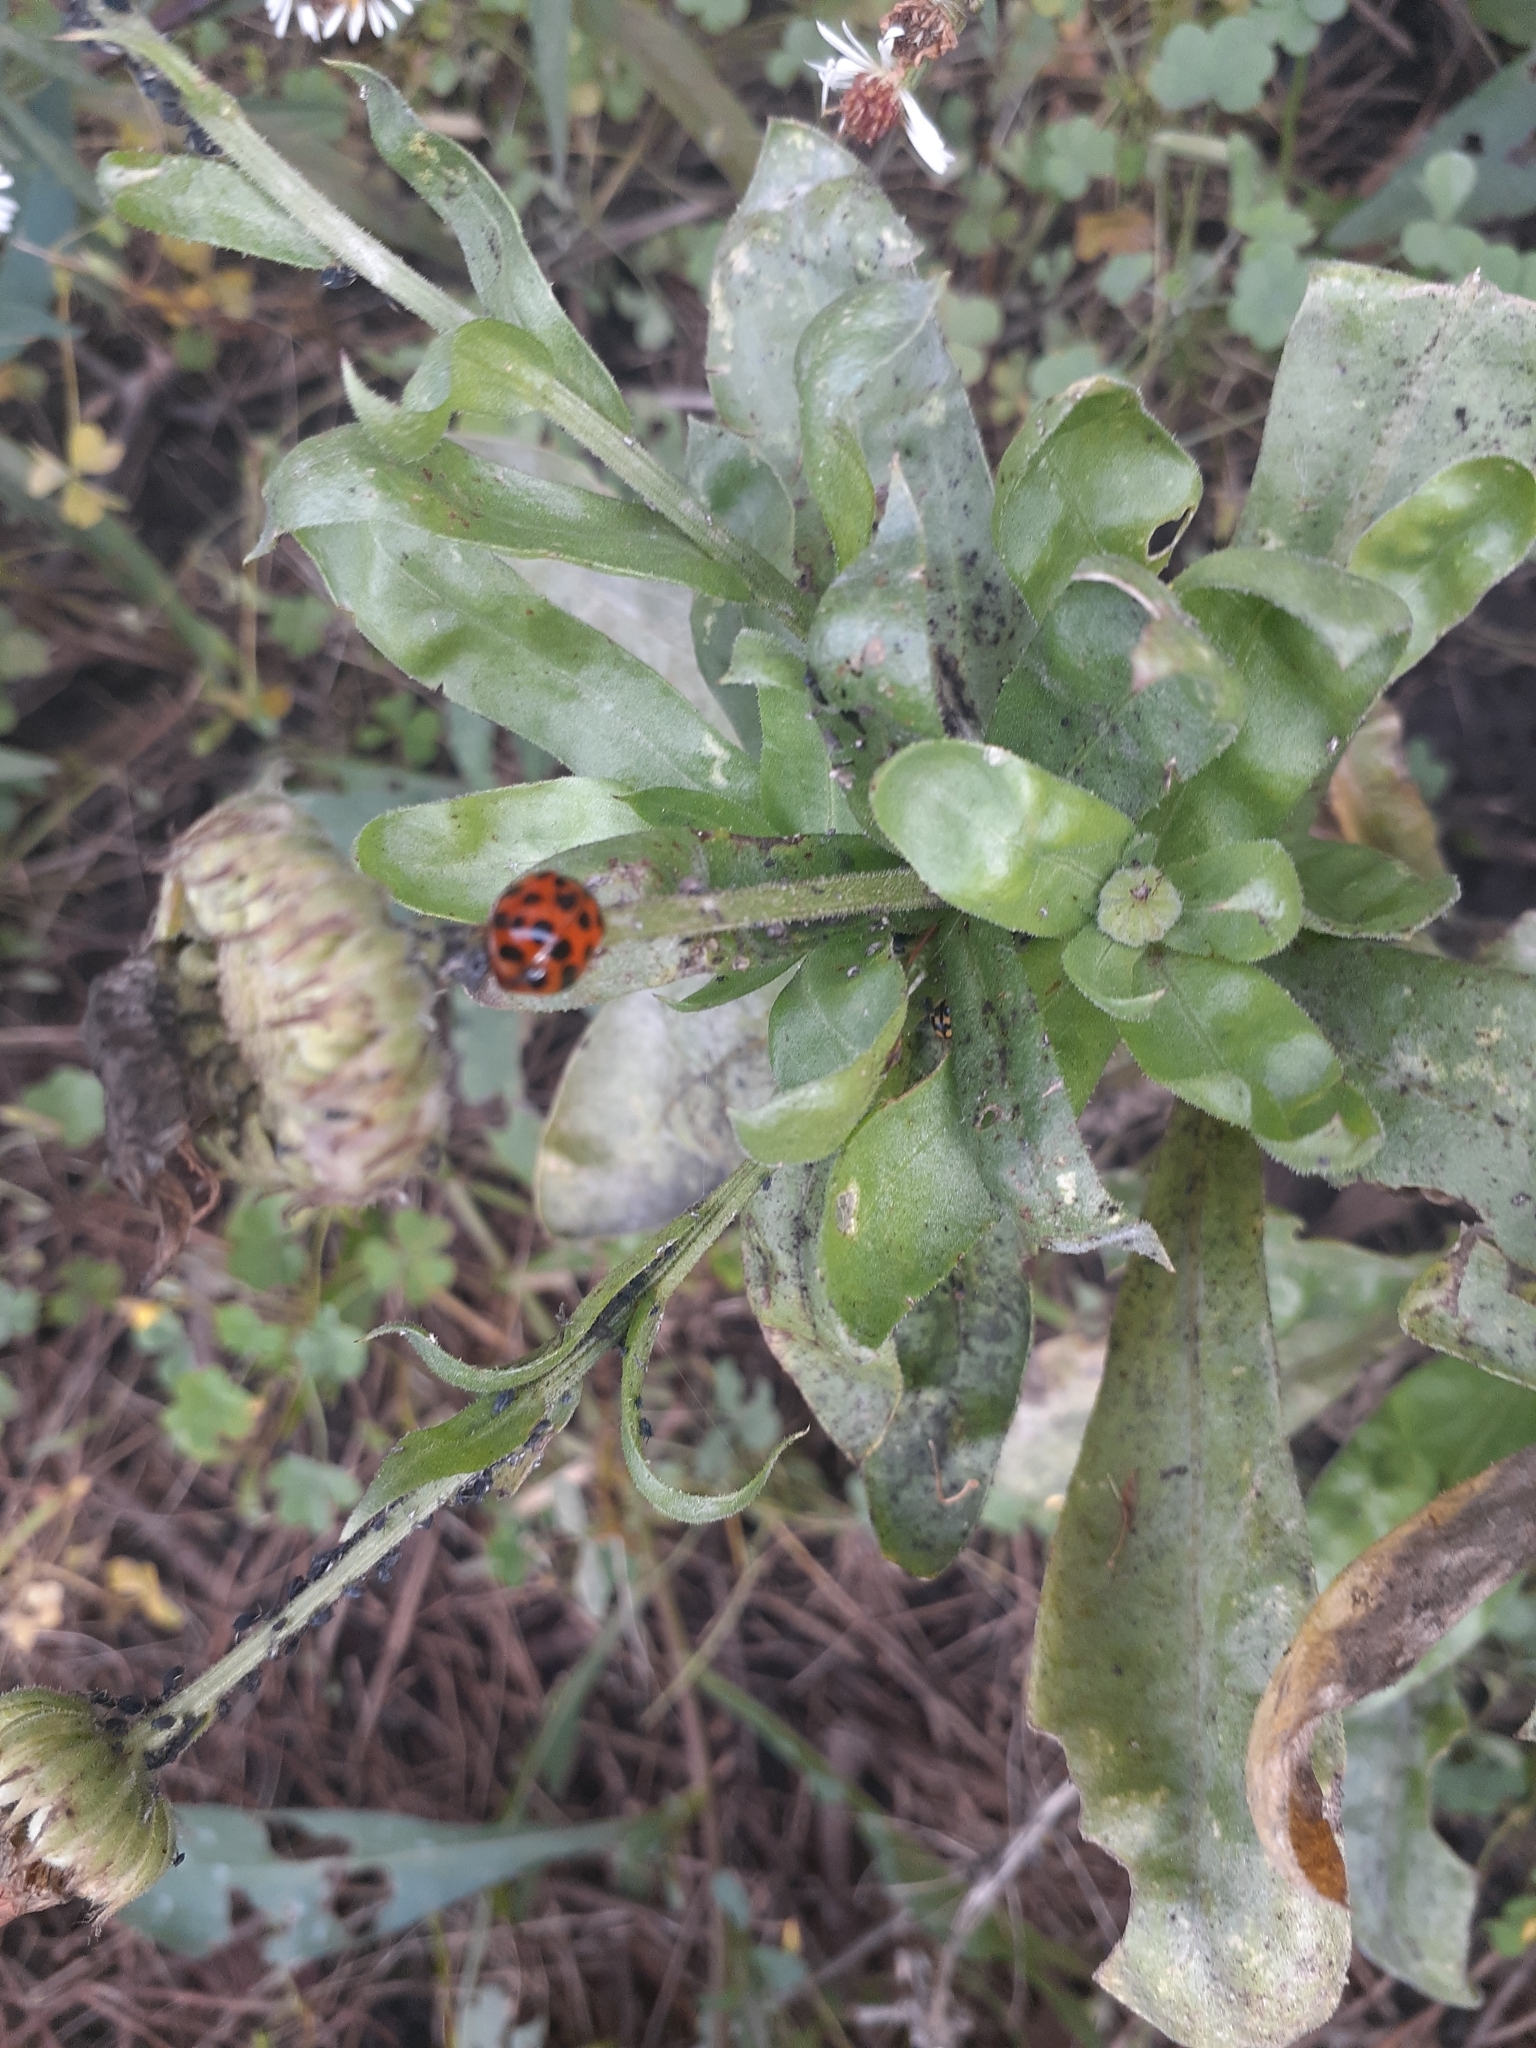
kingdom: Animalia
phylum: Arthropoda
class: Insecta
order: Coleoptera
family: Coccinellidae
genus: Harmonia
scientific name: Harmonia axyridis
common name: Harlequin ladybird
